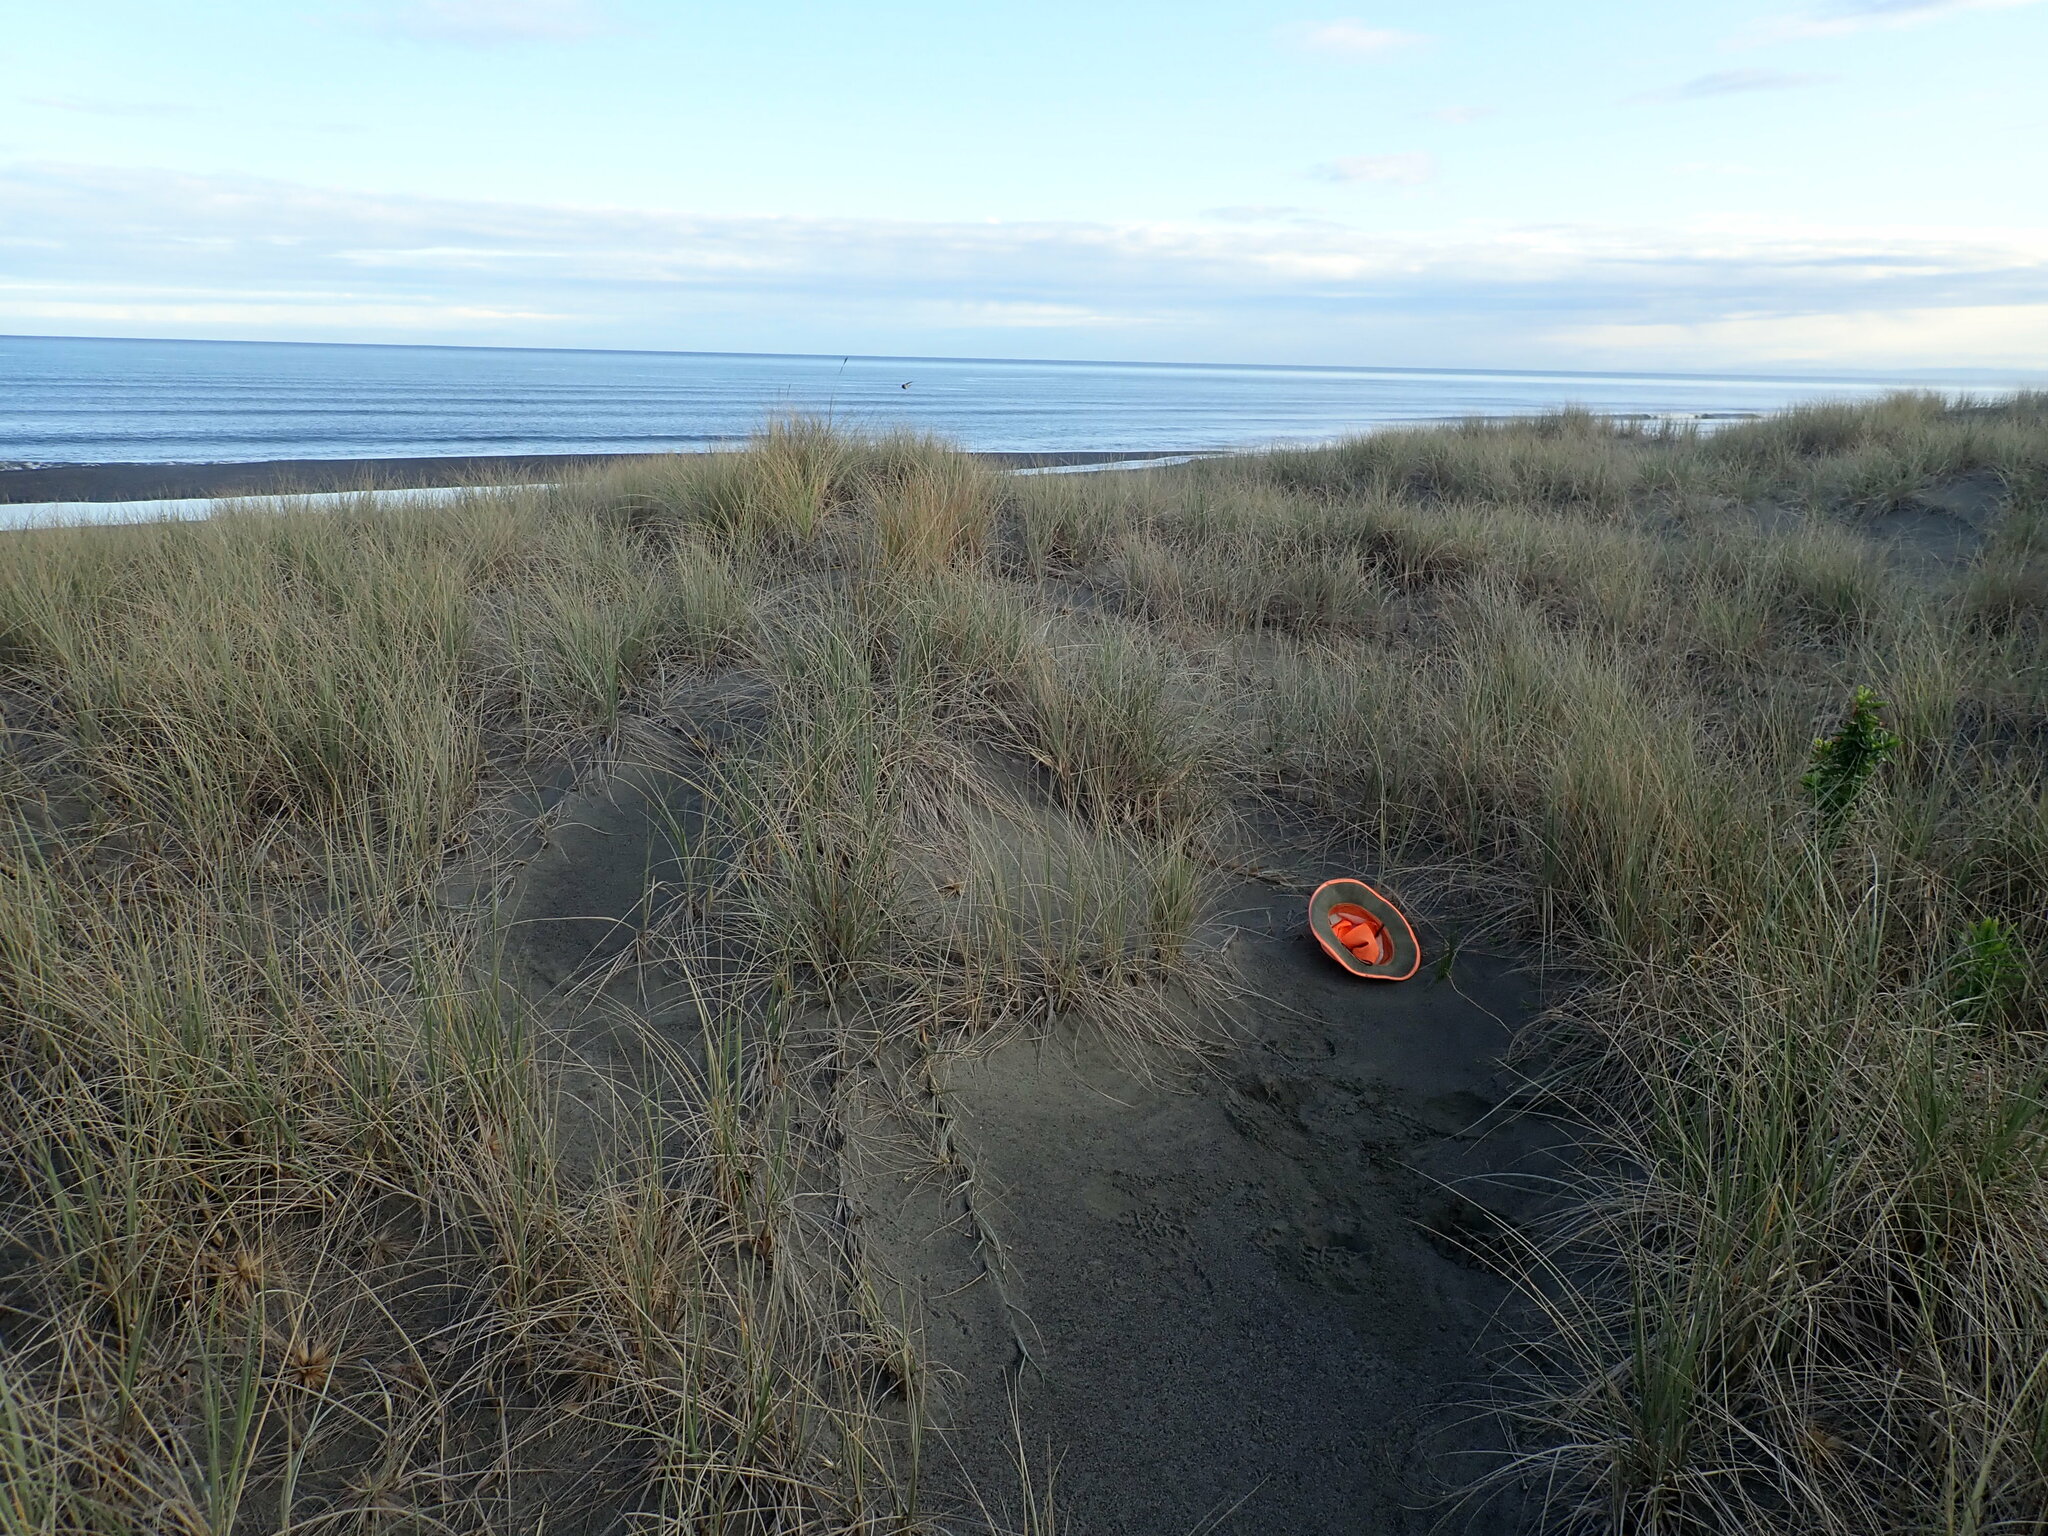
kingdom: Plantae
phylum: Tracheophyta
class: Liliopsida
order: Poales
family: Cyperaceae
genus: Ficinia
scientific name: Ficinia nodosa
